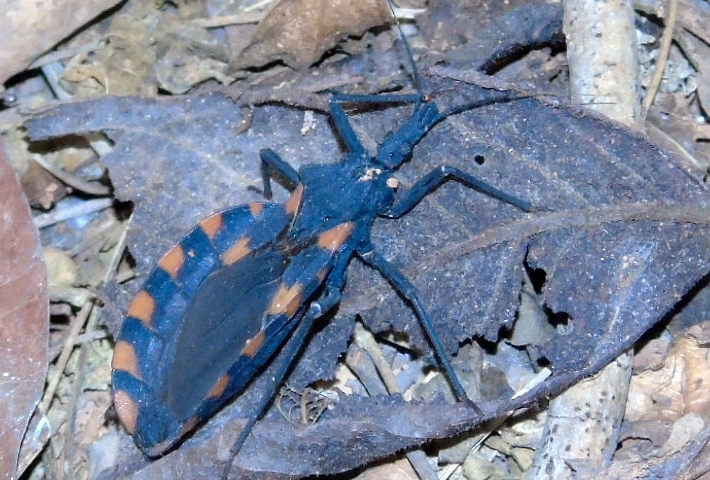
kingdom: Animalia
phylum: Arthropoda
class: Insecta
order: Hemiptera
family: Reduviidae
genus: Meccus
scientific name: Meccus longipennis
